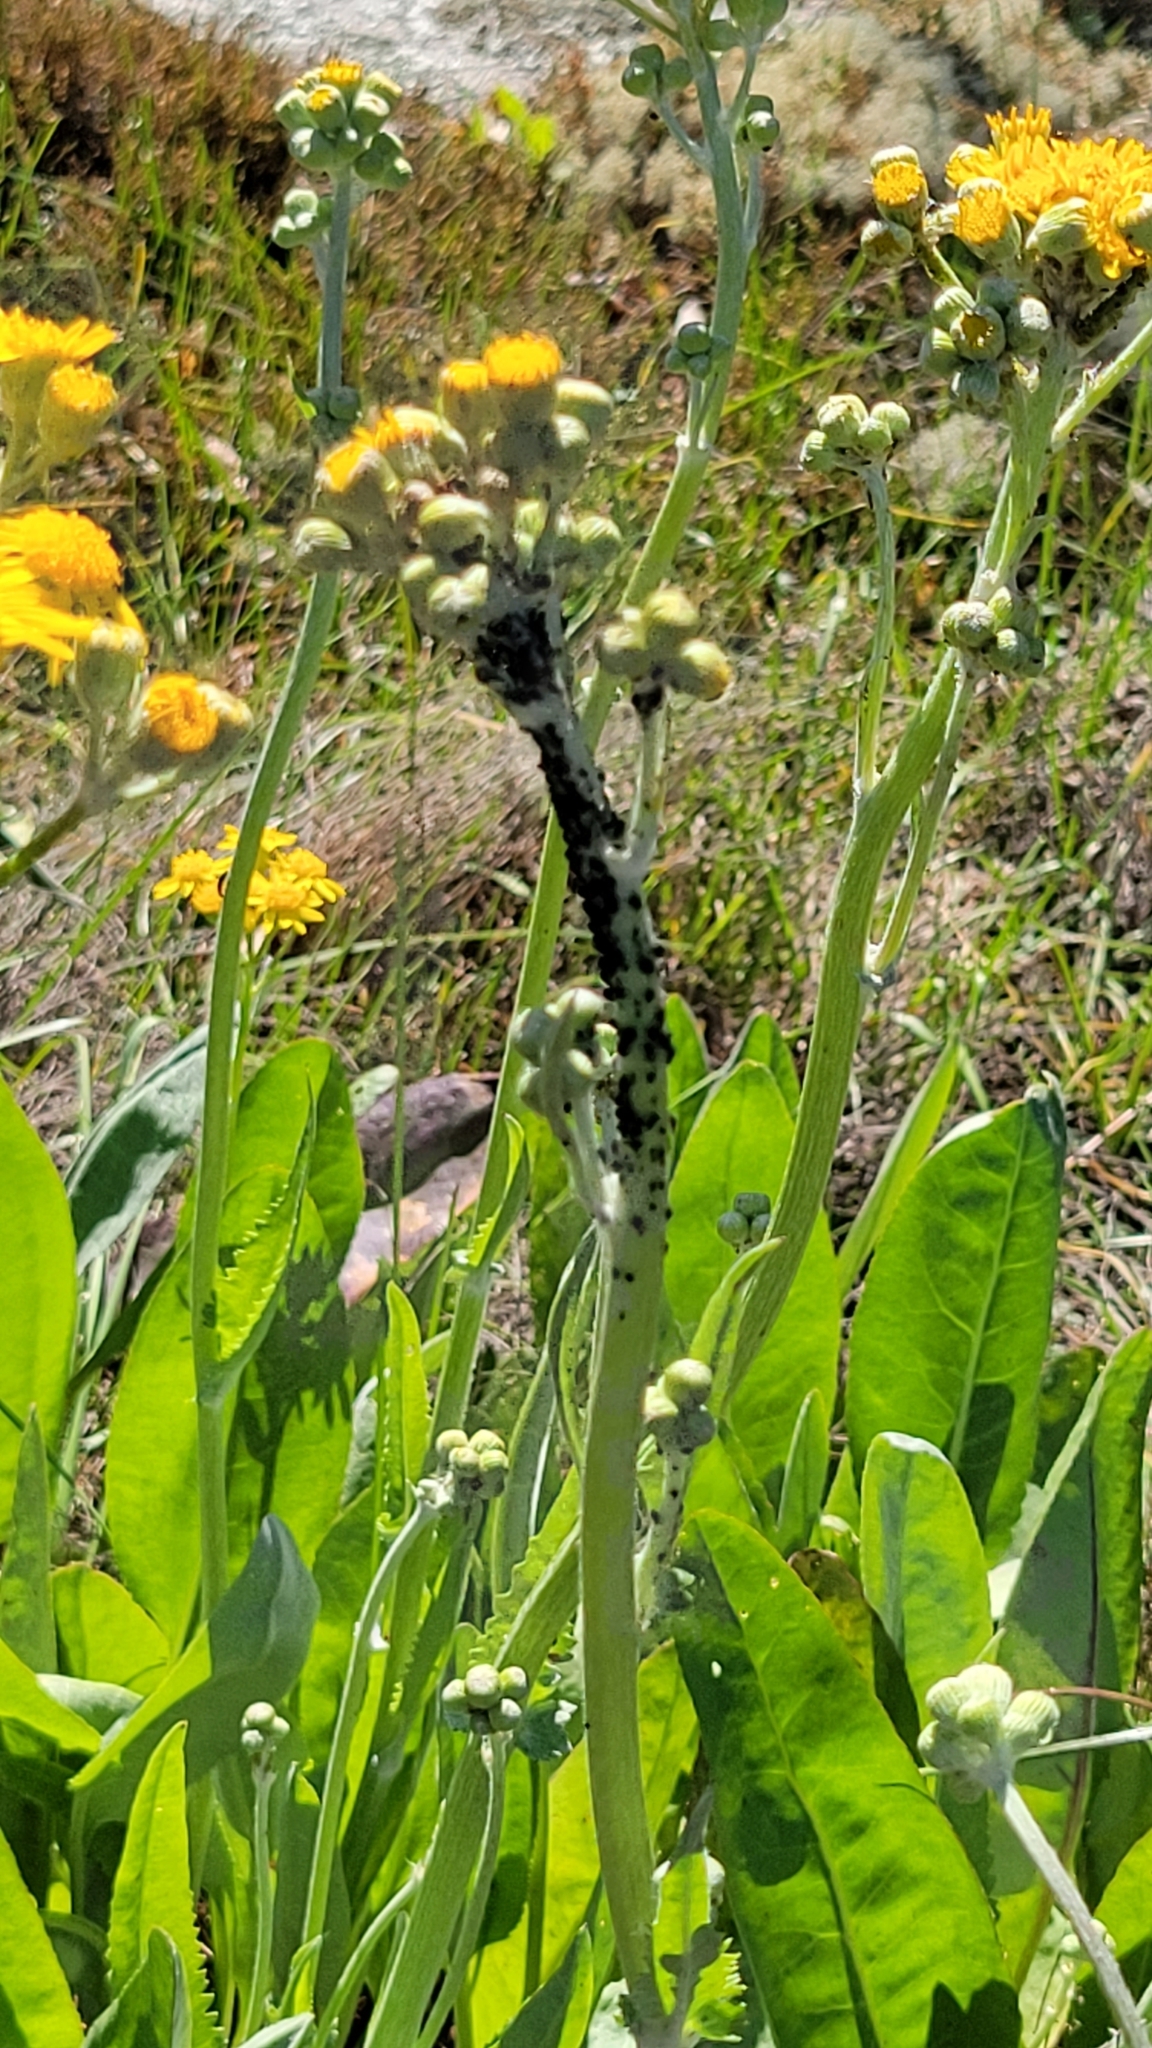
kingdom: Plantae
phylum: Tracheophyta
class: Magnoliopsida
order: Asterales
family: Asteraceae
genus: Packera
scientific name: Packera dubia
